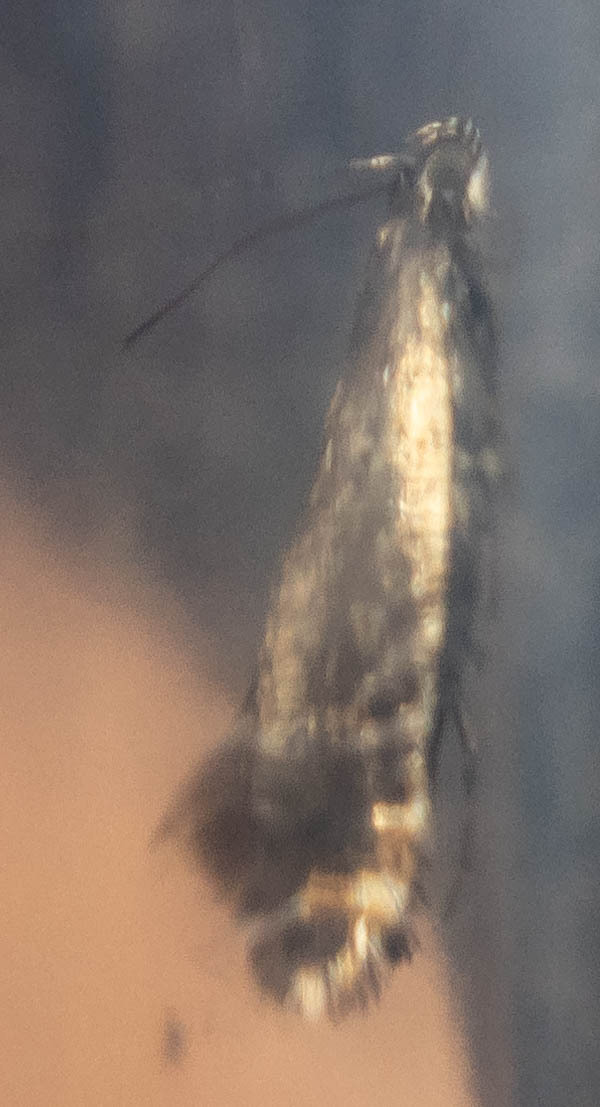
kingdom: Animalia
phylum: Arthropoda
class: Insecta
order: Lepidoptera
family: Glyphipterigidae
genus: Glyphipterix
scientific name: Glyphipterix simpliciella
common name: Cocksfoot moth
